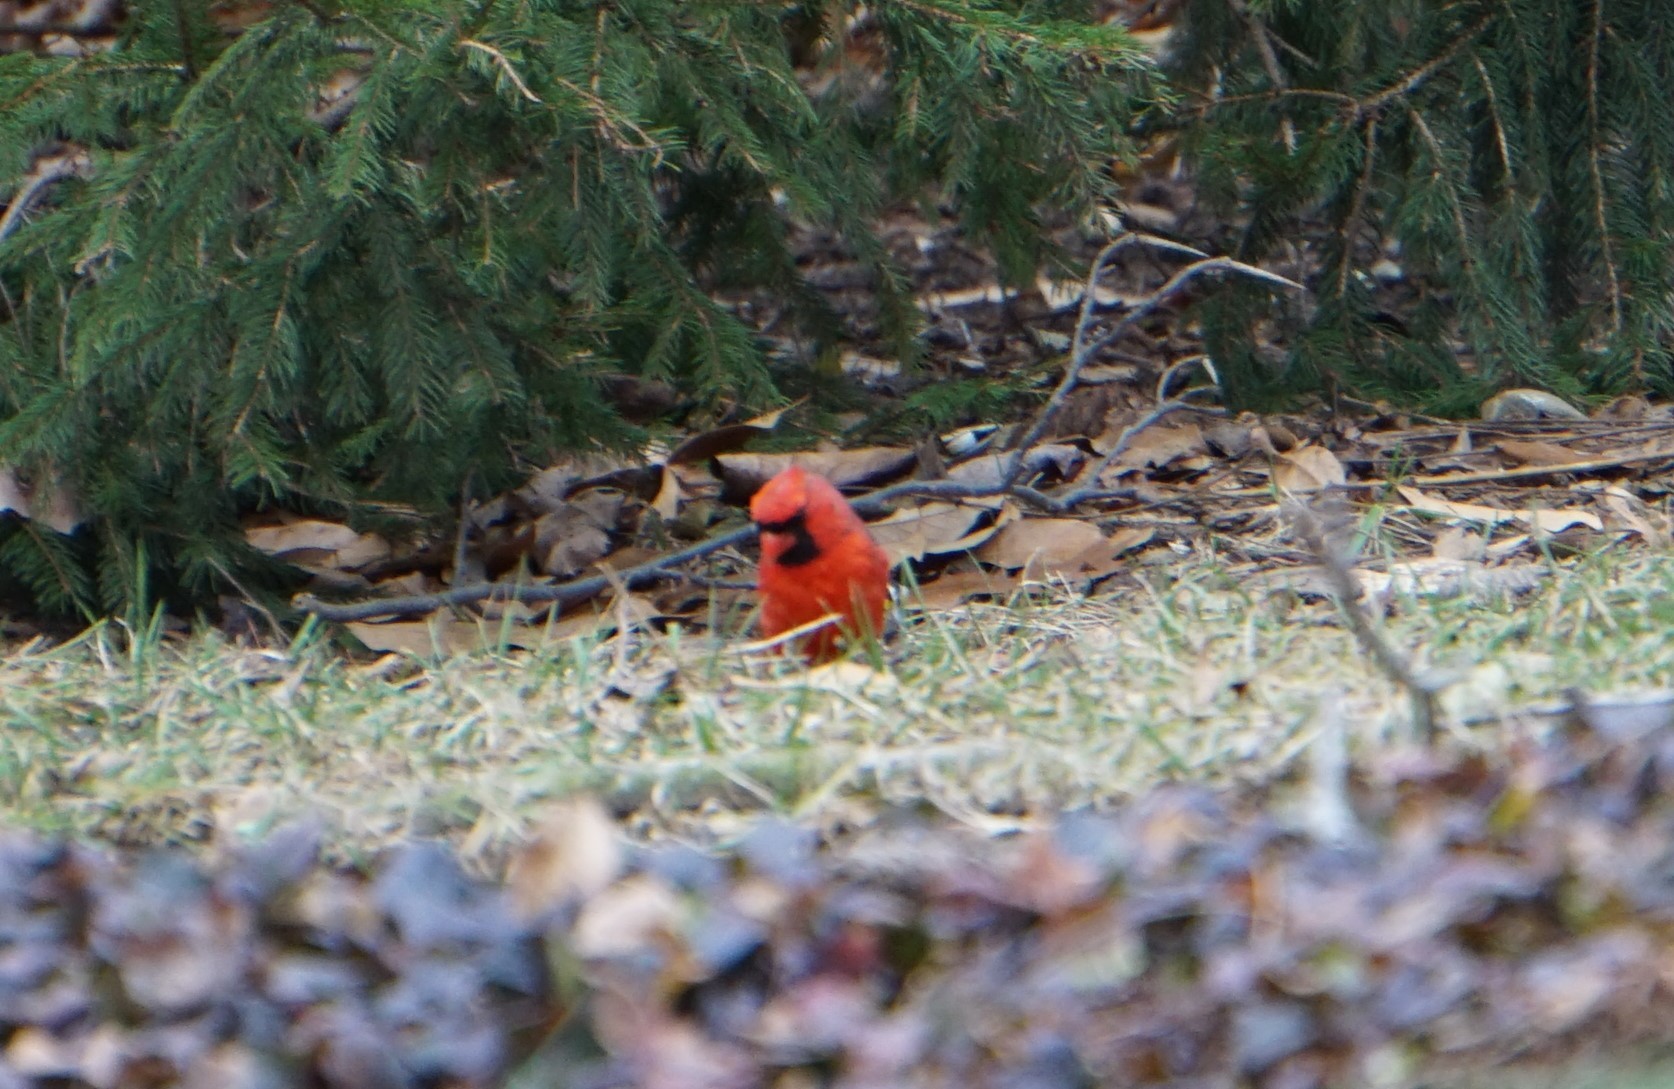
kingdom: Animalia
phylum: Chordata
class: Aves
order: Passeriformes
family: Cardinalidae
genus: Cardinalis
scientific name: Cardinalis cardinalis
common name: Northern cardinal
